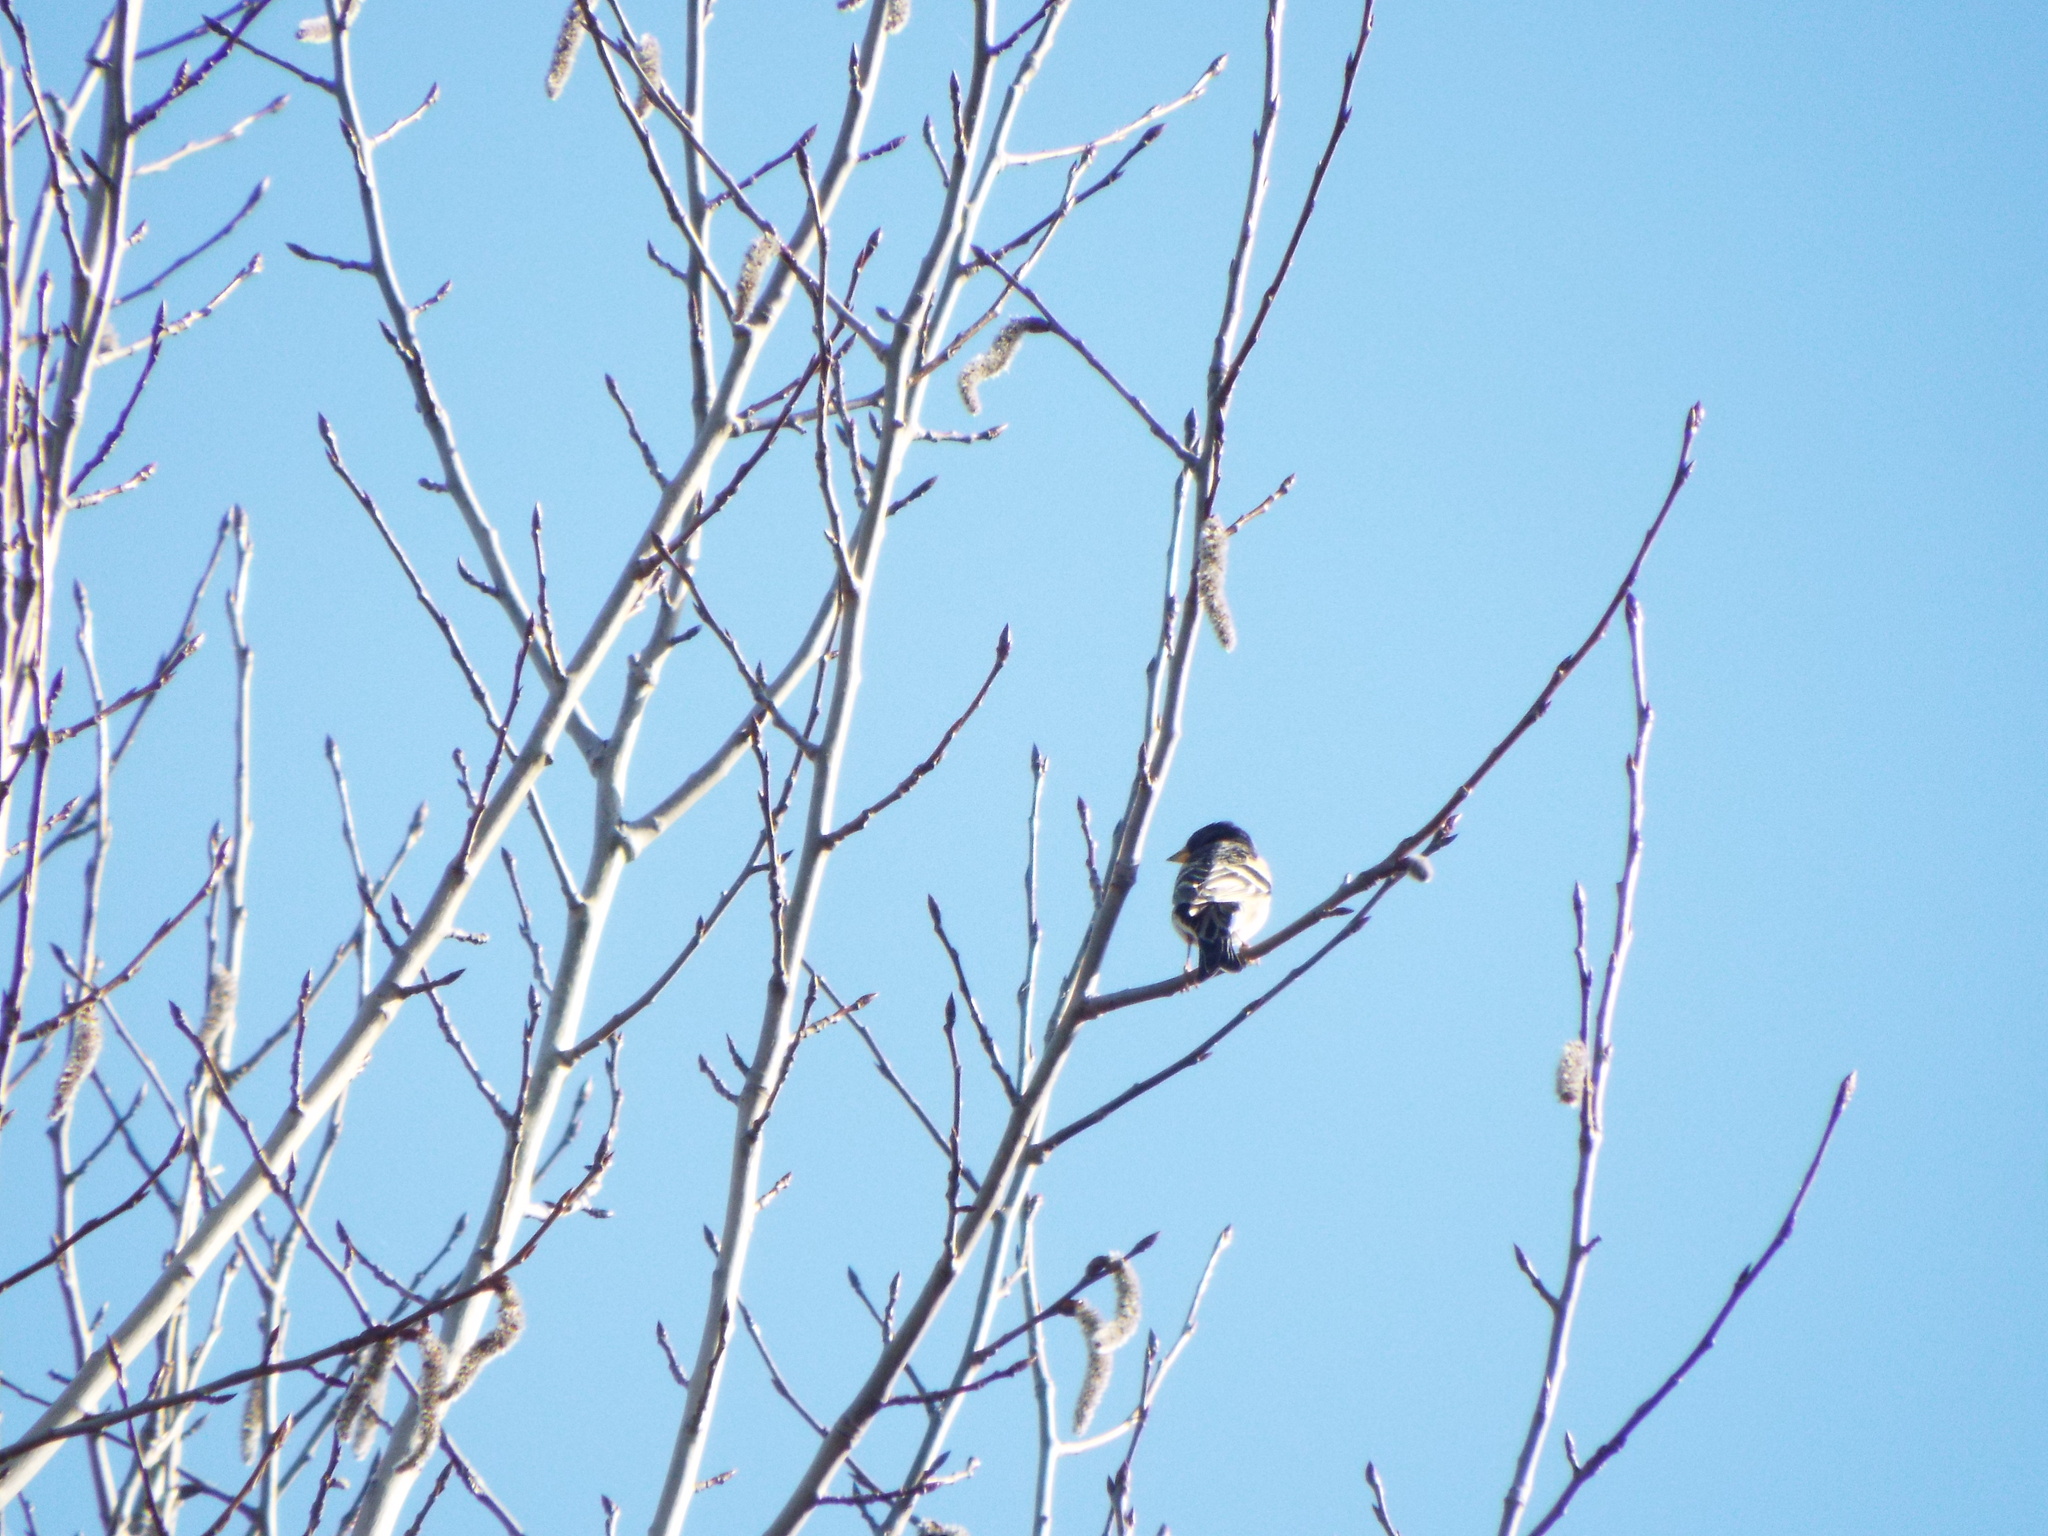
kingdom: Animalia
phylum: Chordata
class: Aves
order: Passeriformes
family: Fringillidae
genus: Fringilla
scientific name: Fringilla montifringilla
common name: Brambling
